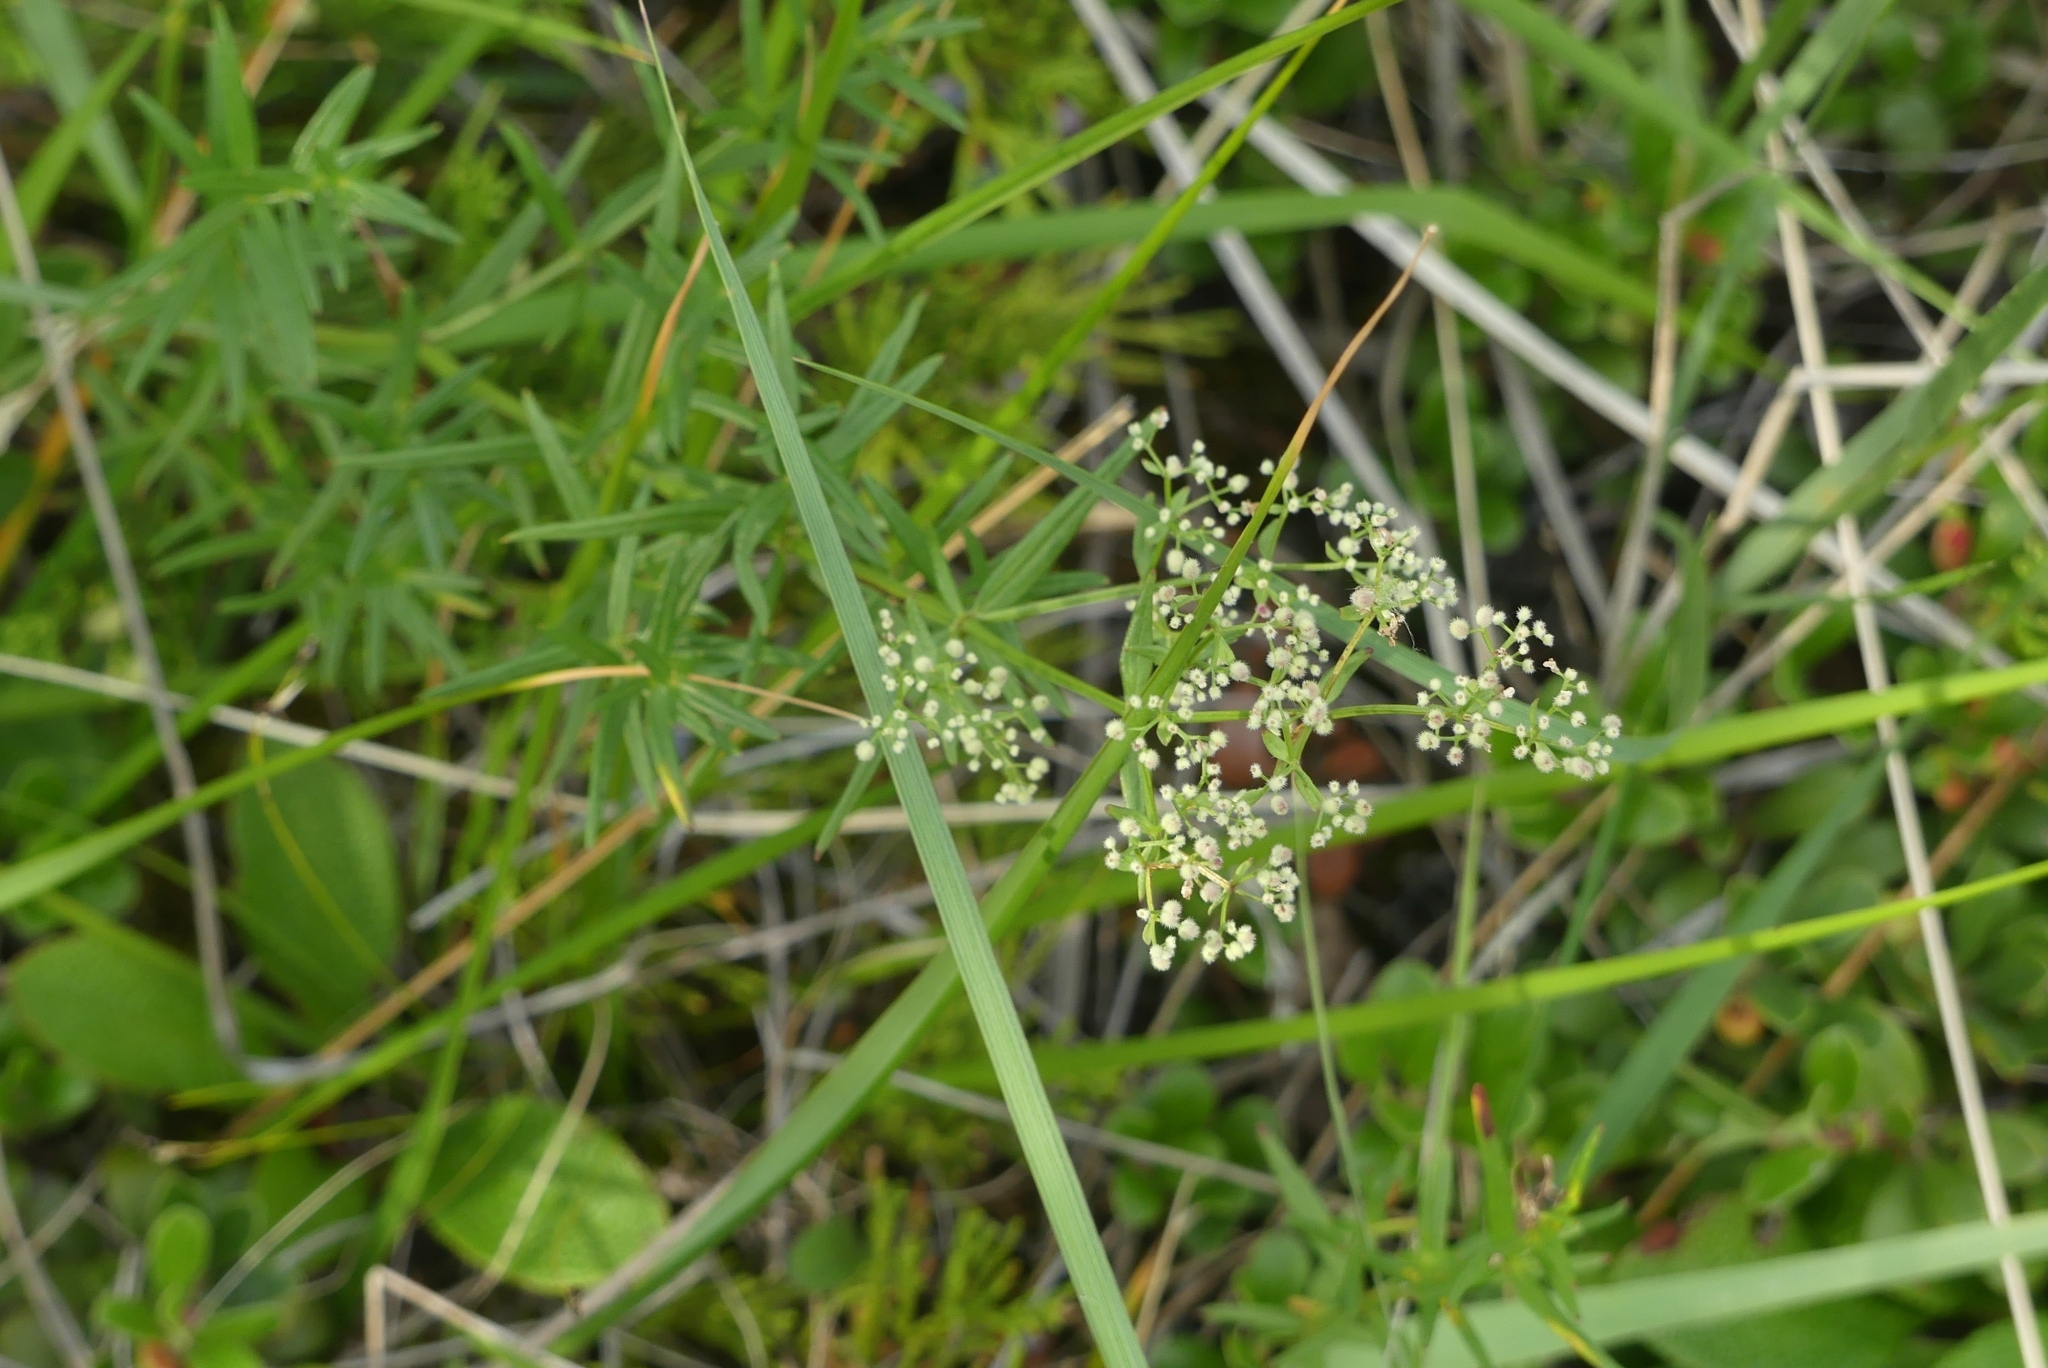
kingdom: Plantae
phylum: Tracheophyta
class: Magnoliopsida
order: Gentianales
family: Rubiaceae
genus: Galium
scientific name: Galium boreale
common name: Northern bedstraw
